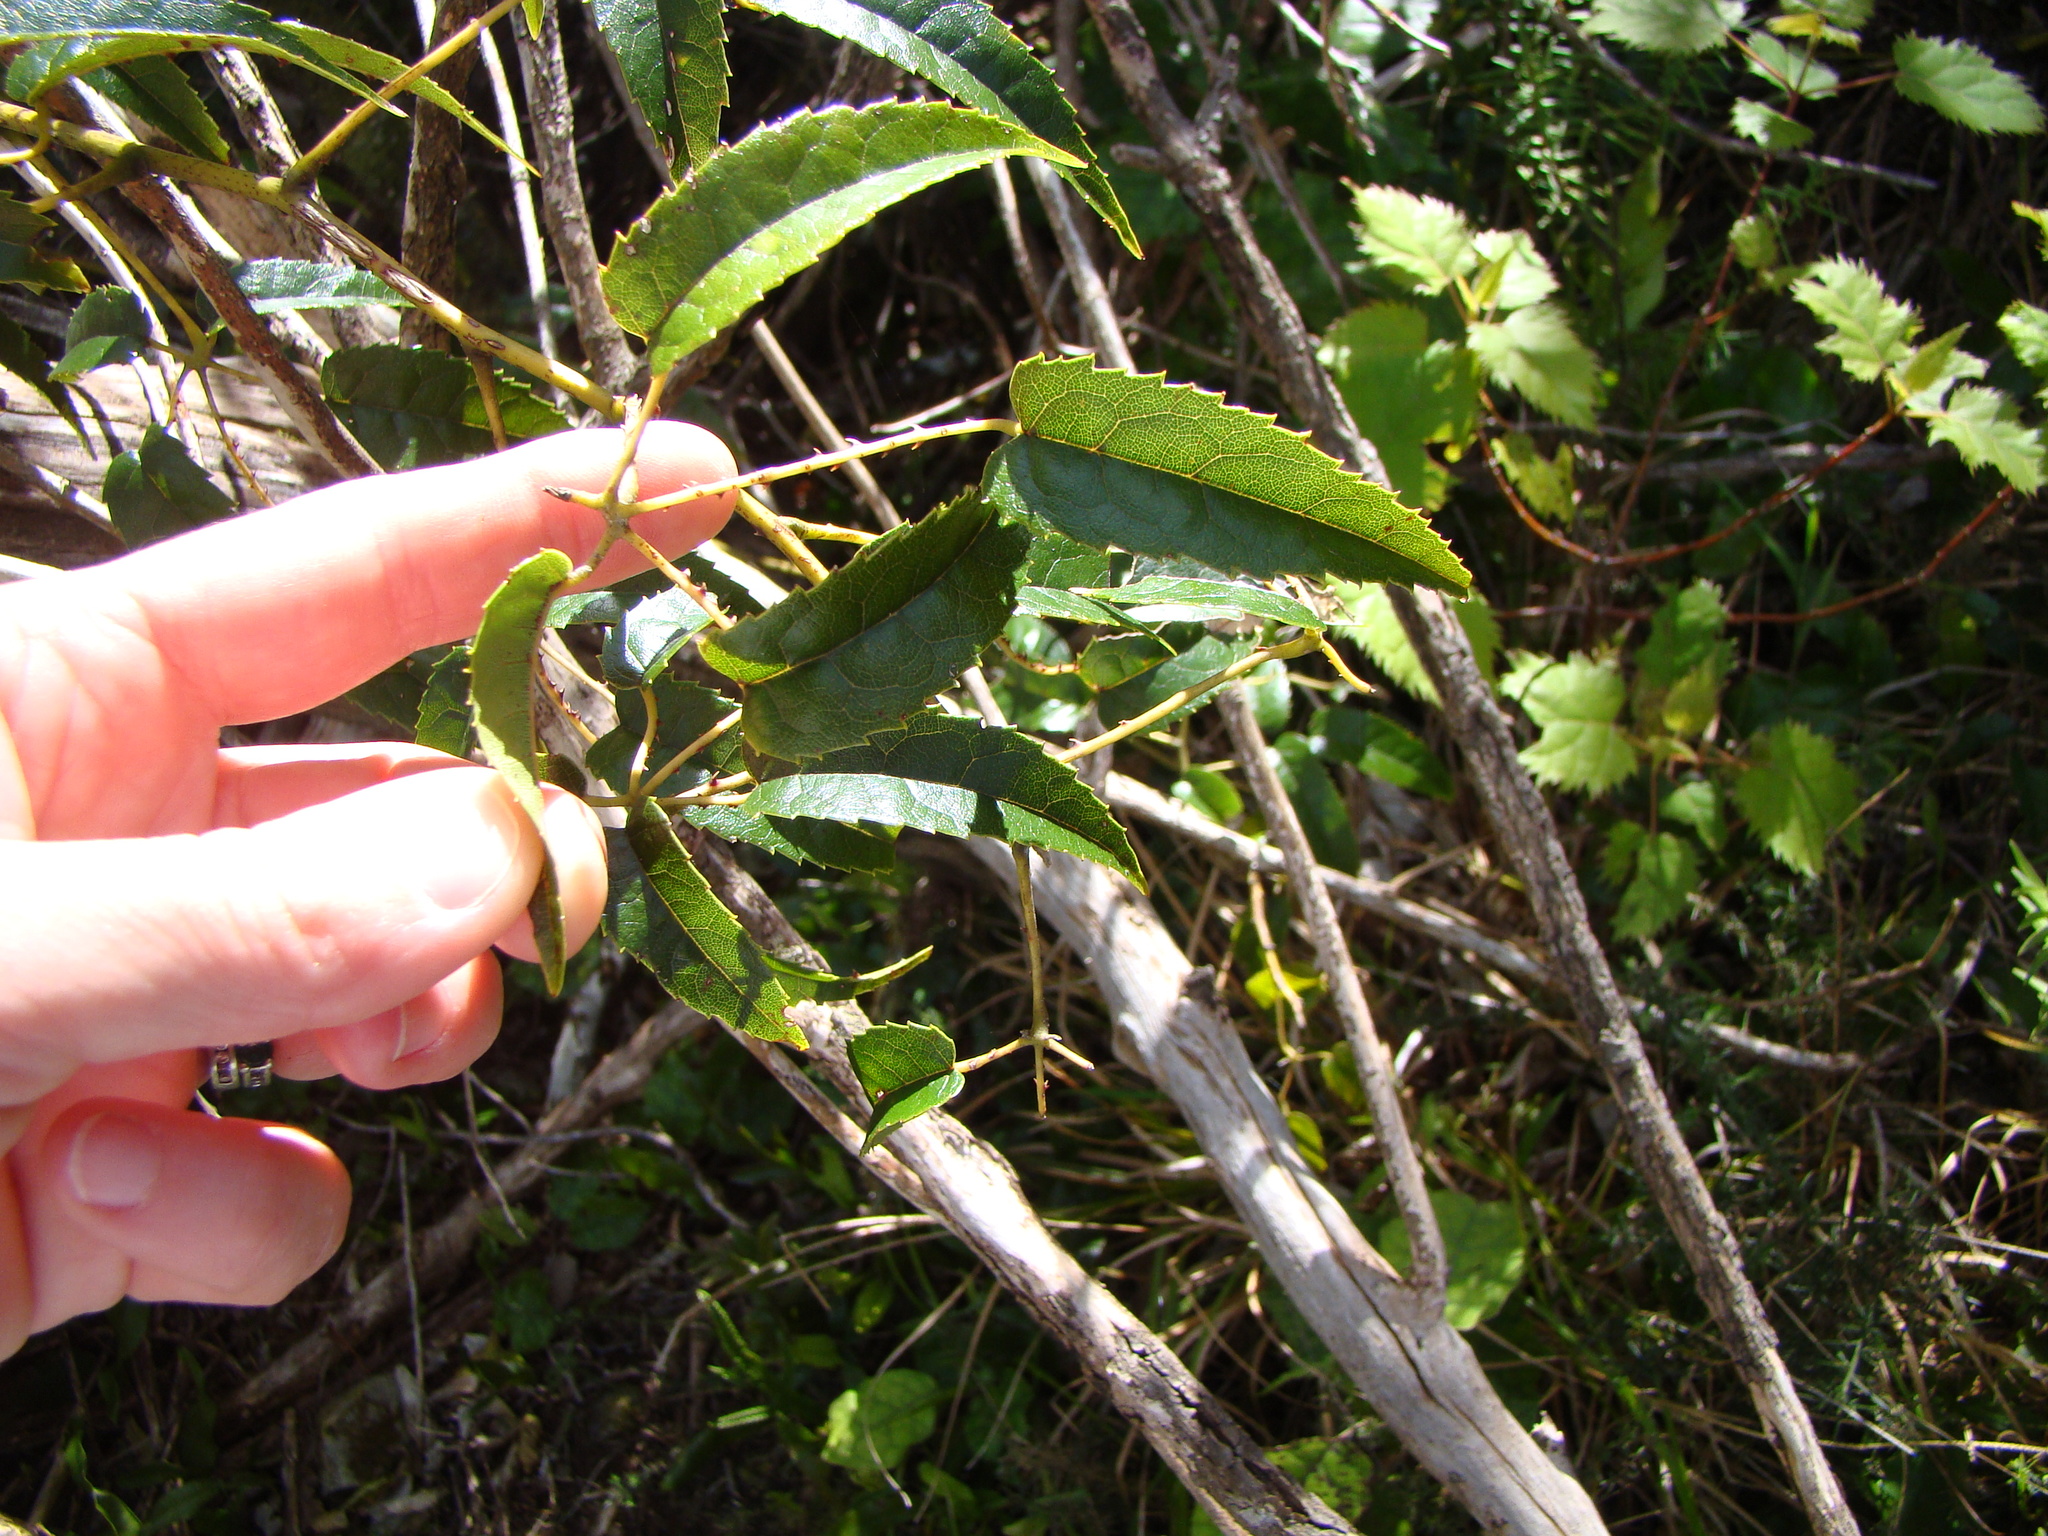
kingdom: Plantae
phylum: Tracheophyta
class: Magnoliopsida
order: Rosales
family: Rosaceae
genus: Rubus
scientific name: Rubus cissoides
